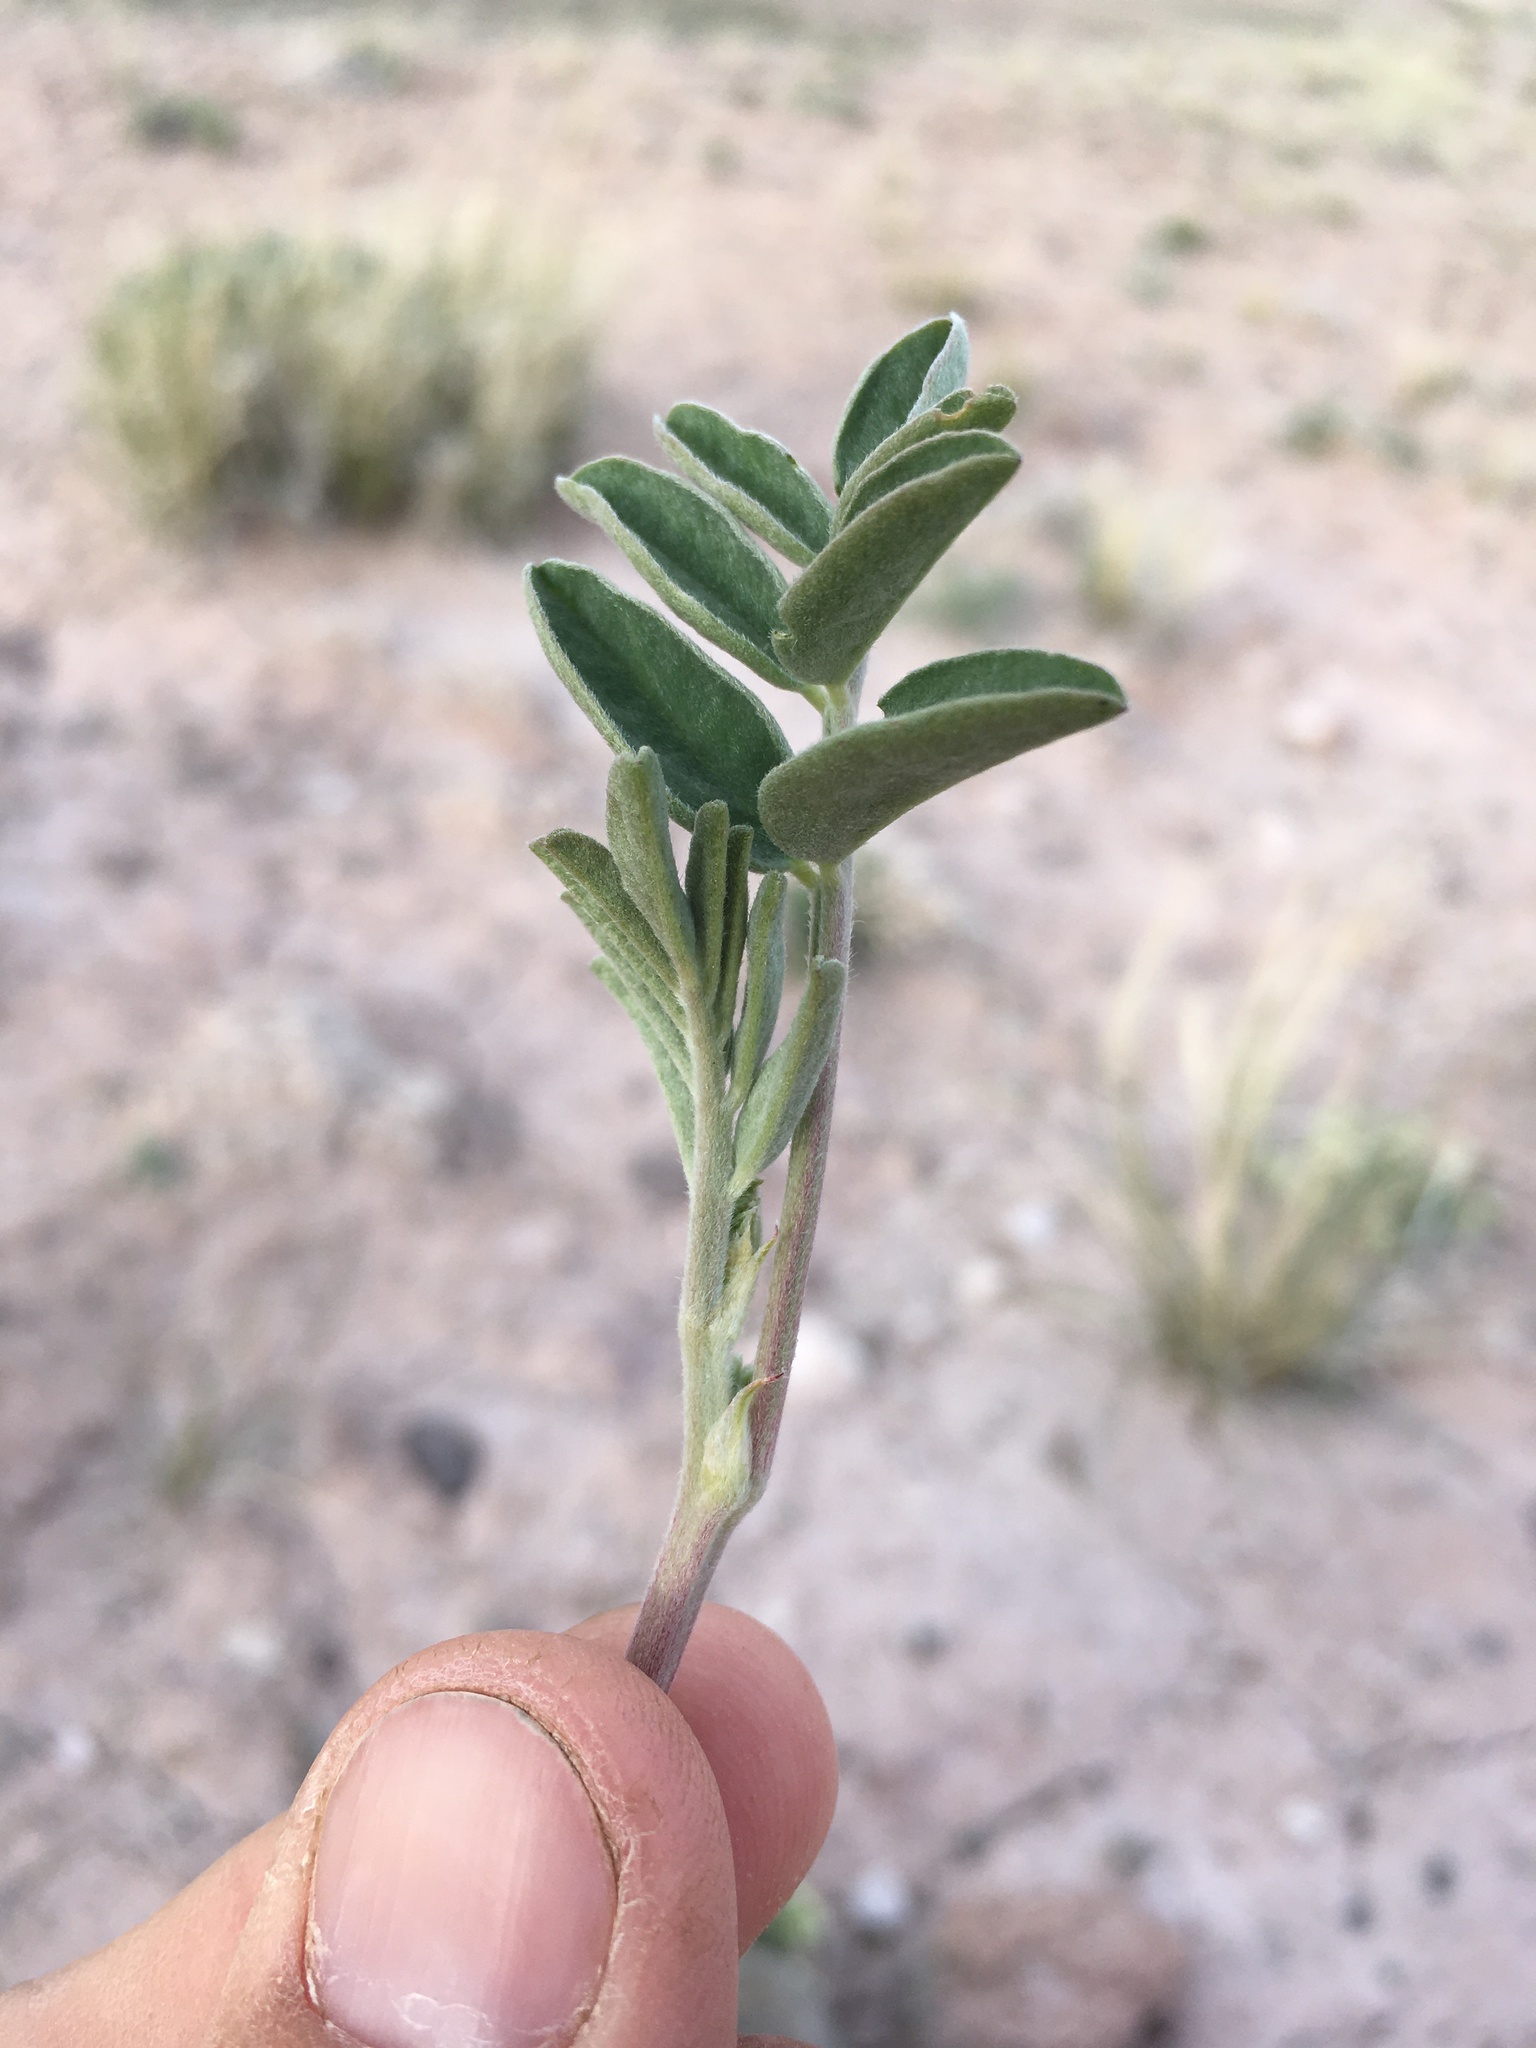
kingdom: Plantae
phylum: Tracheophyta
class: Magnoliopsida
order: Fabales
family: Fabaceae
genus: Hedysarum
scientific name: Hedysarum boreale
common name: Northern sweet-vetch
